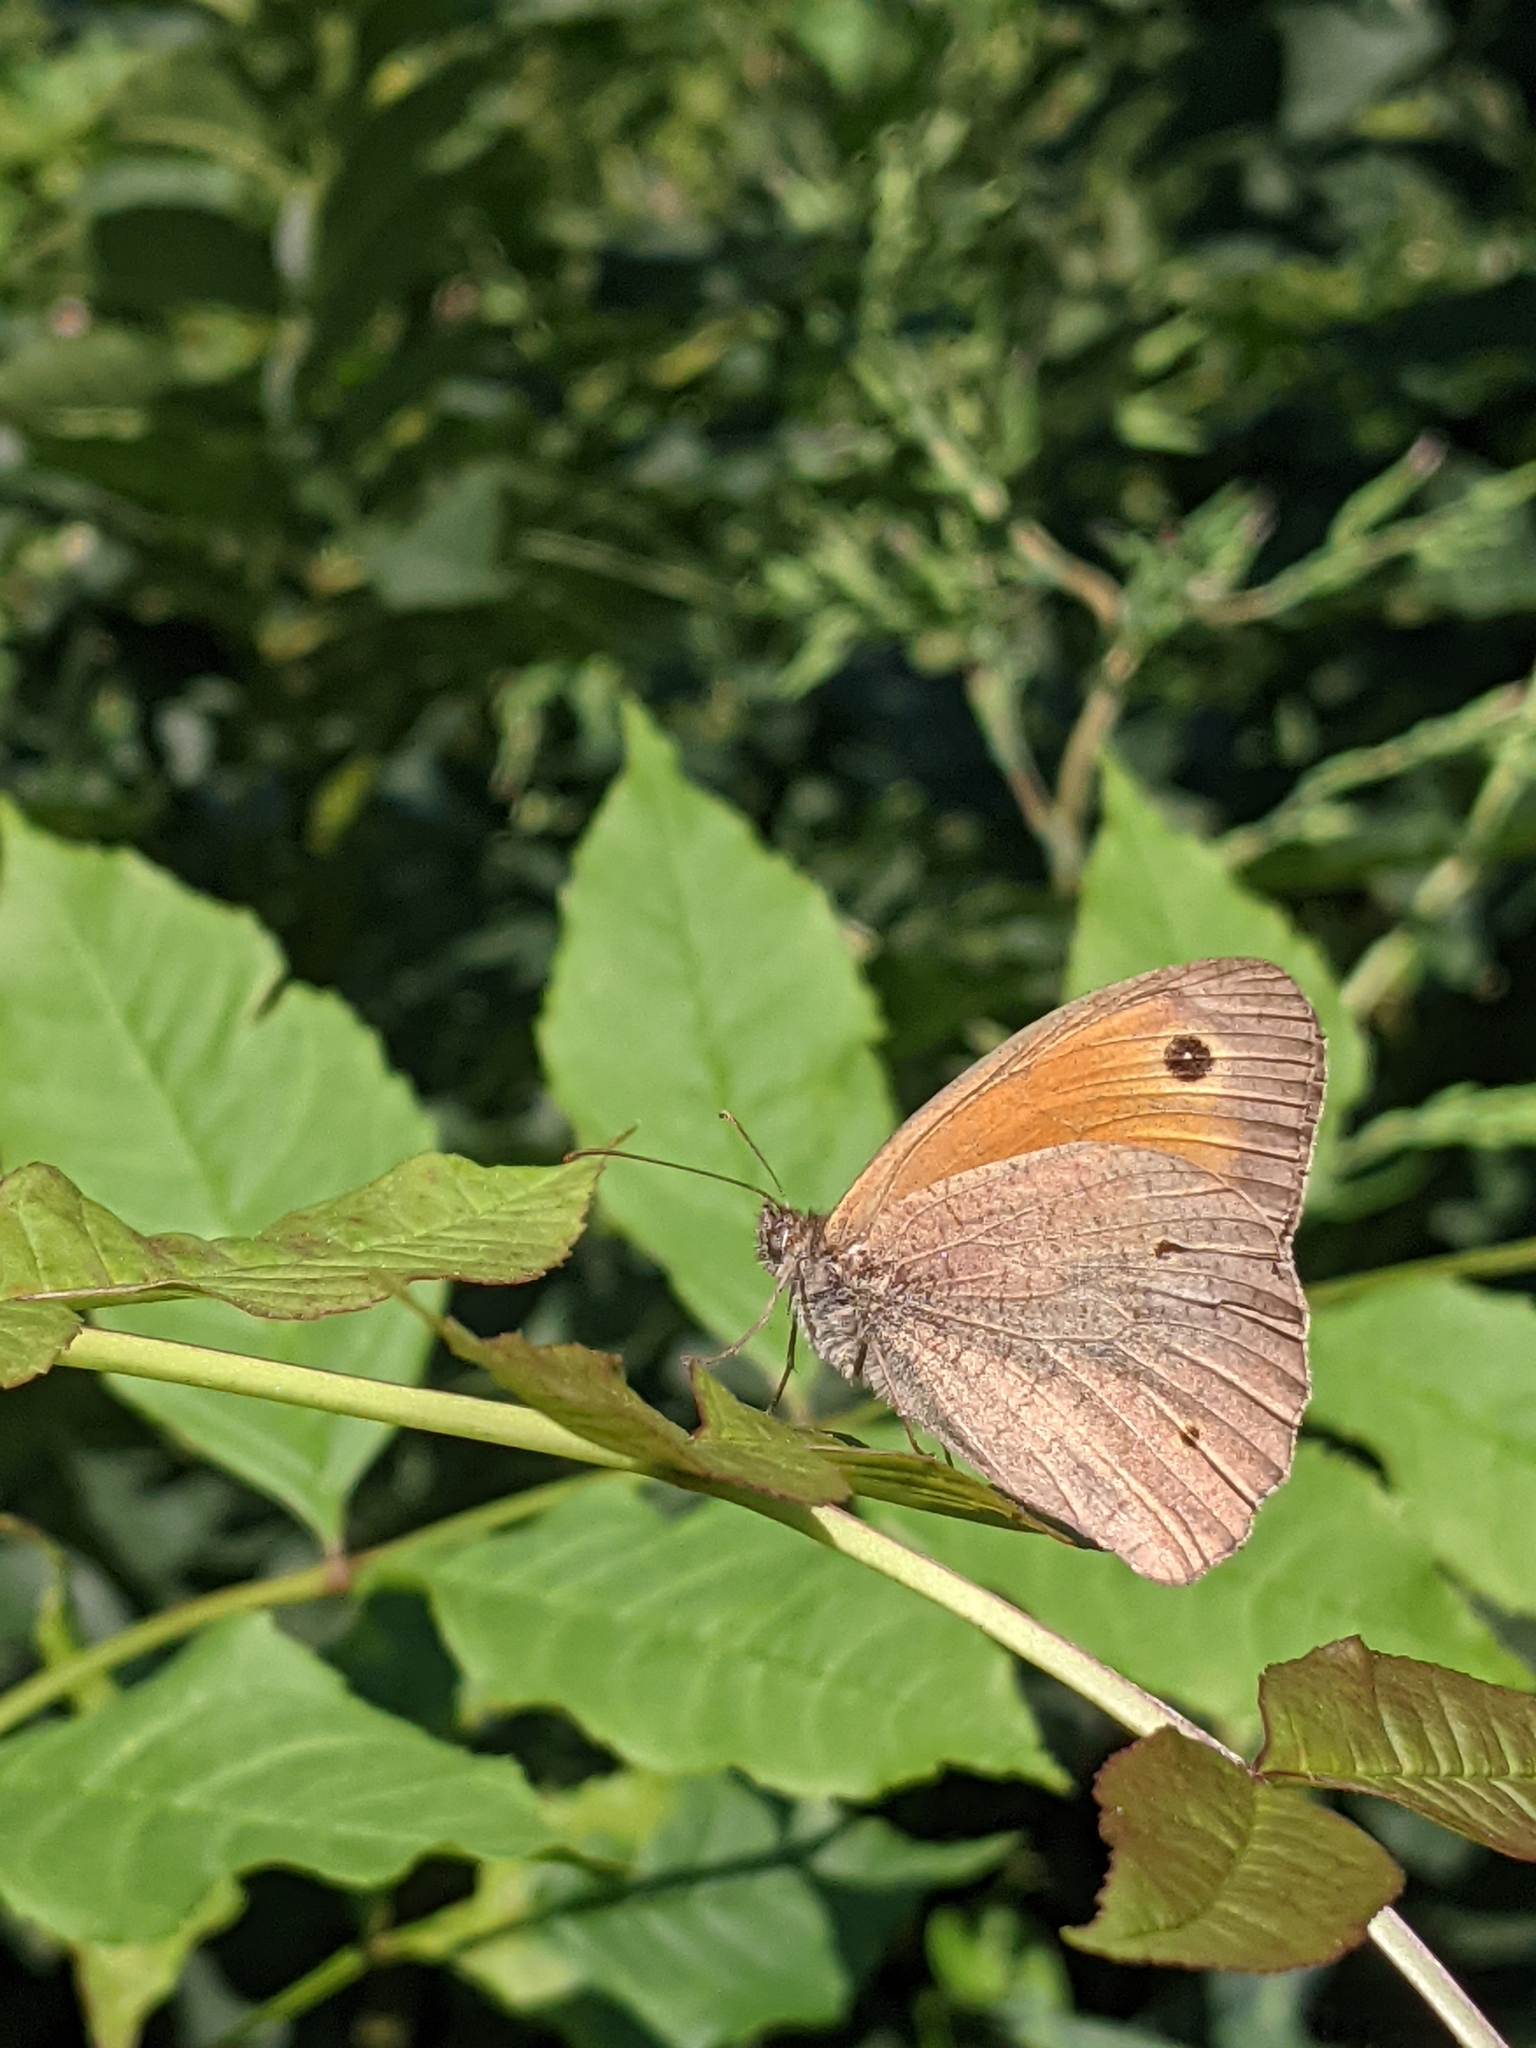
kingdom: Animalia
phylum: Arthropoda
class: Insecta
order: Lepidoptera
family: Nymphalidae
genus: Maniola
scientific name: Maniola jurtina
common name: Meadow brown
